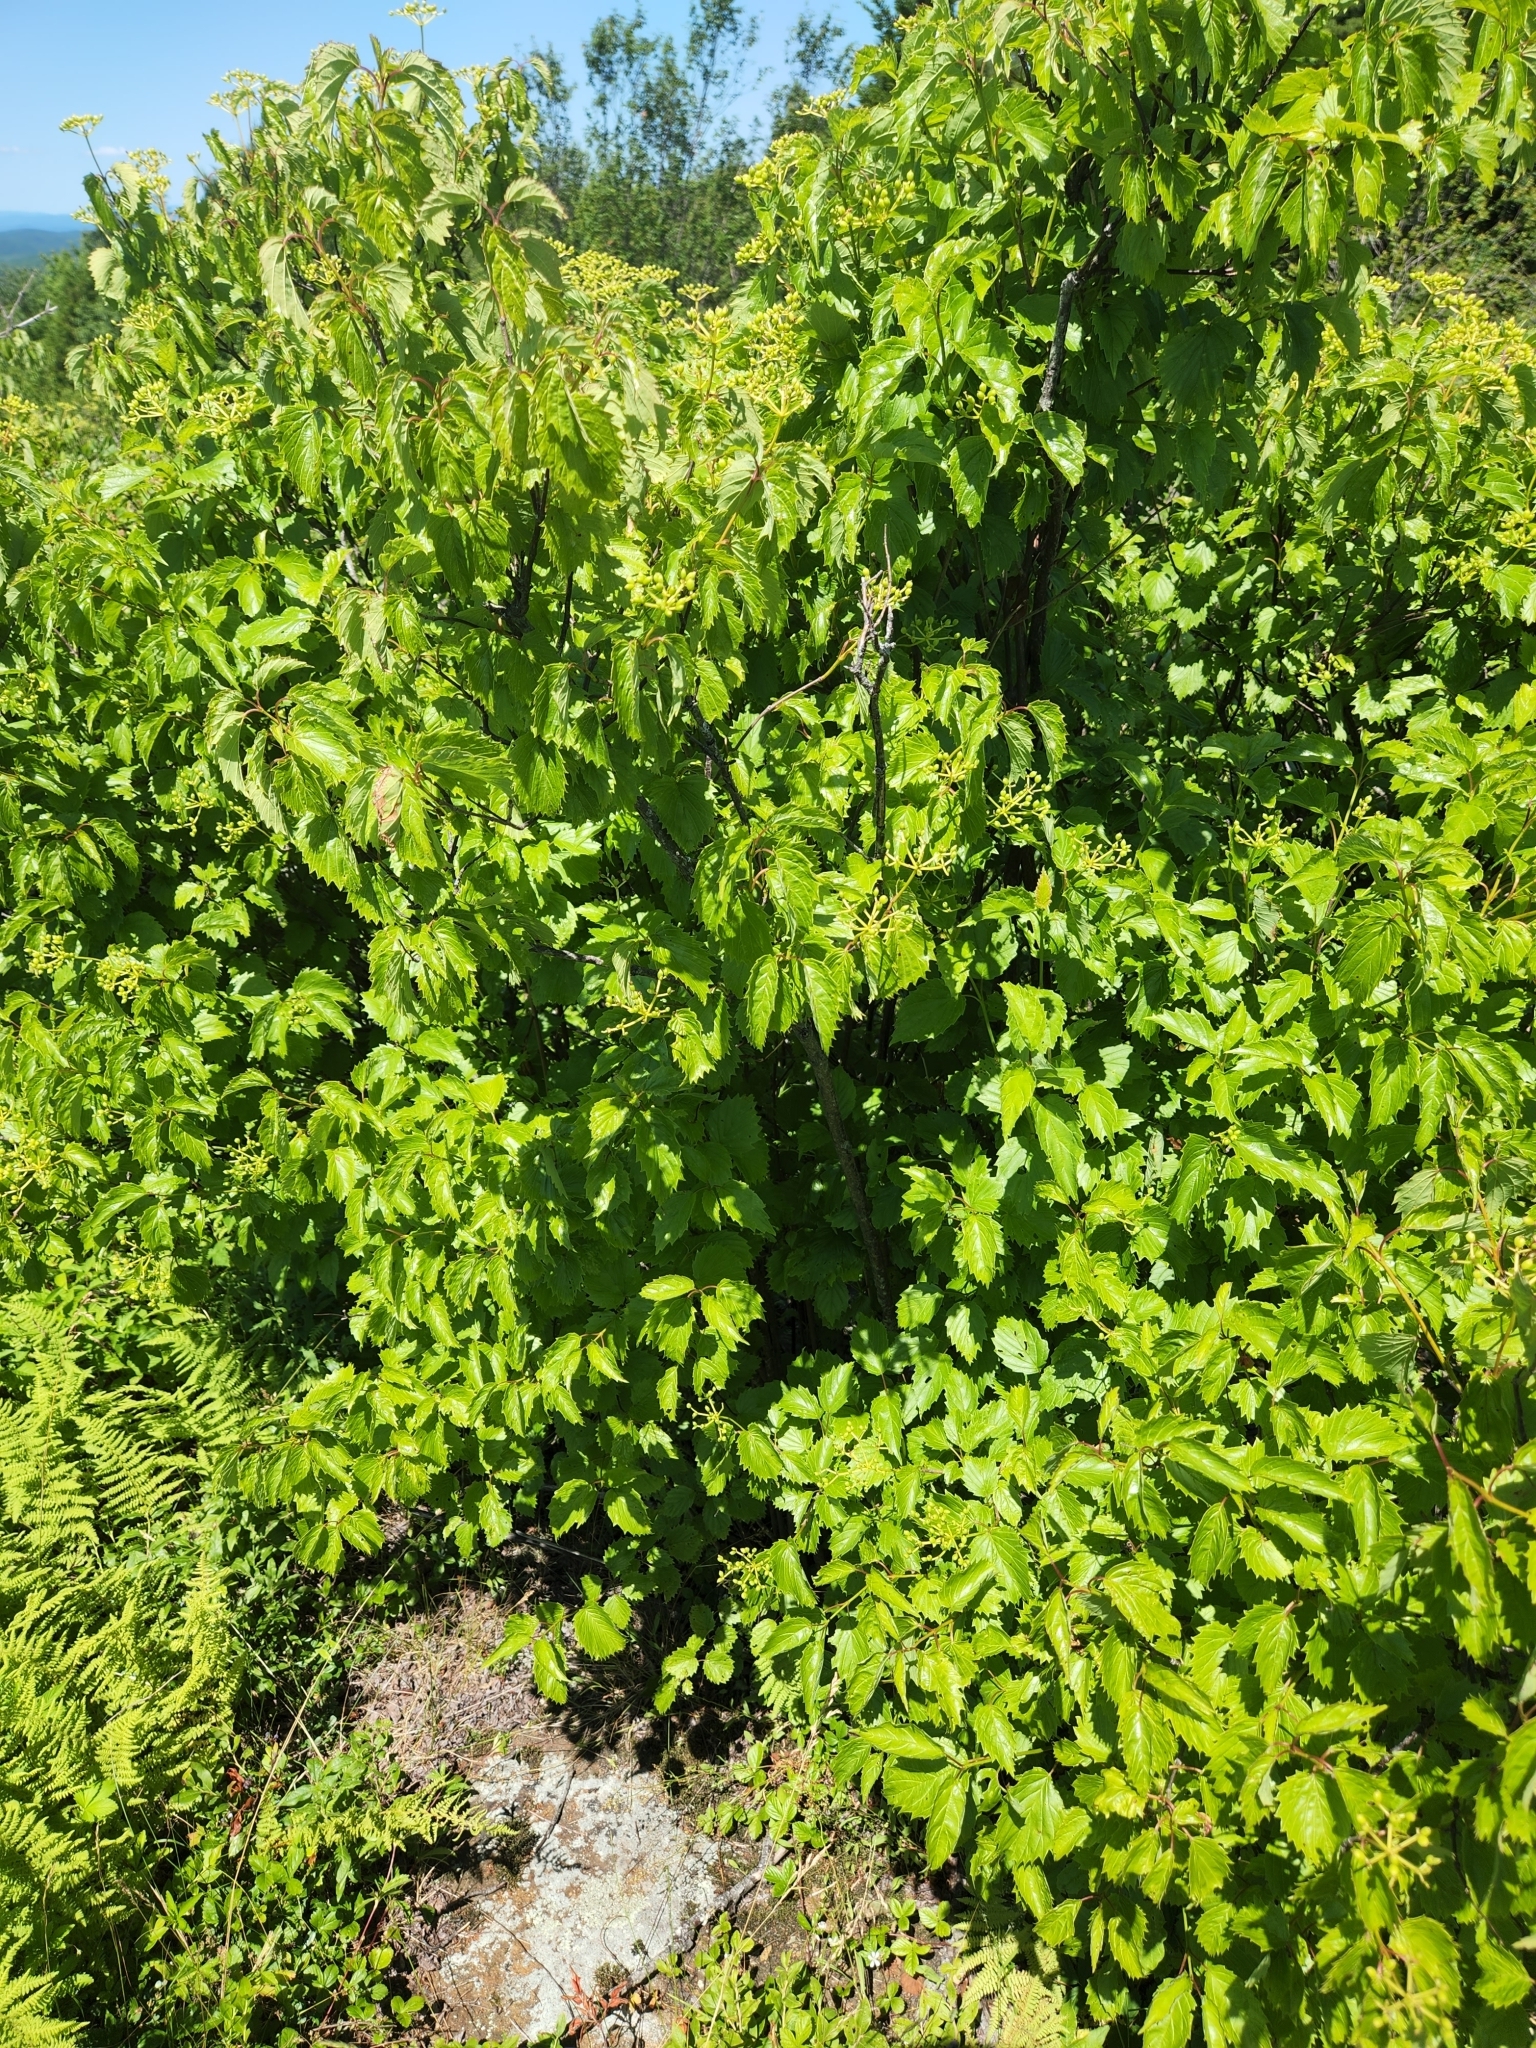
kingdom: Plantae
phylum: Tracheophyta
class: Magnoliopsida
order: Rosales
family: Rosaceae
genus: Physocarpus
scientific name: Physocarpus opulifolius
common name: Ninebark
